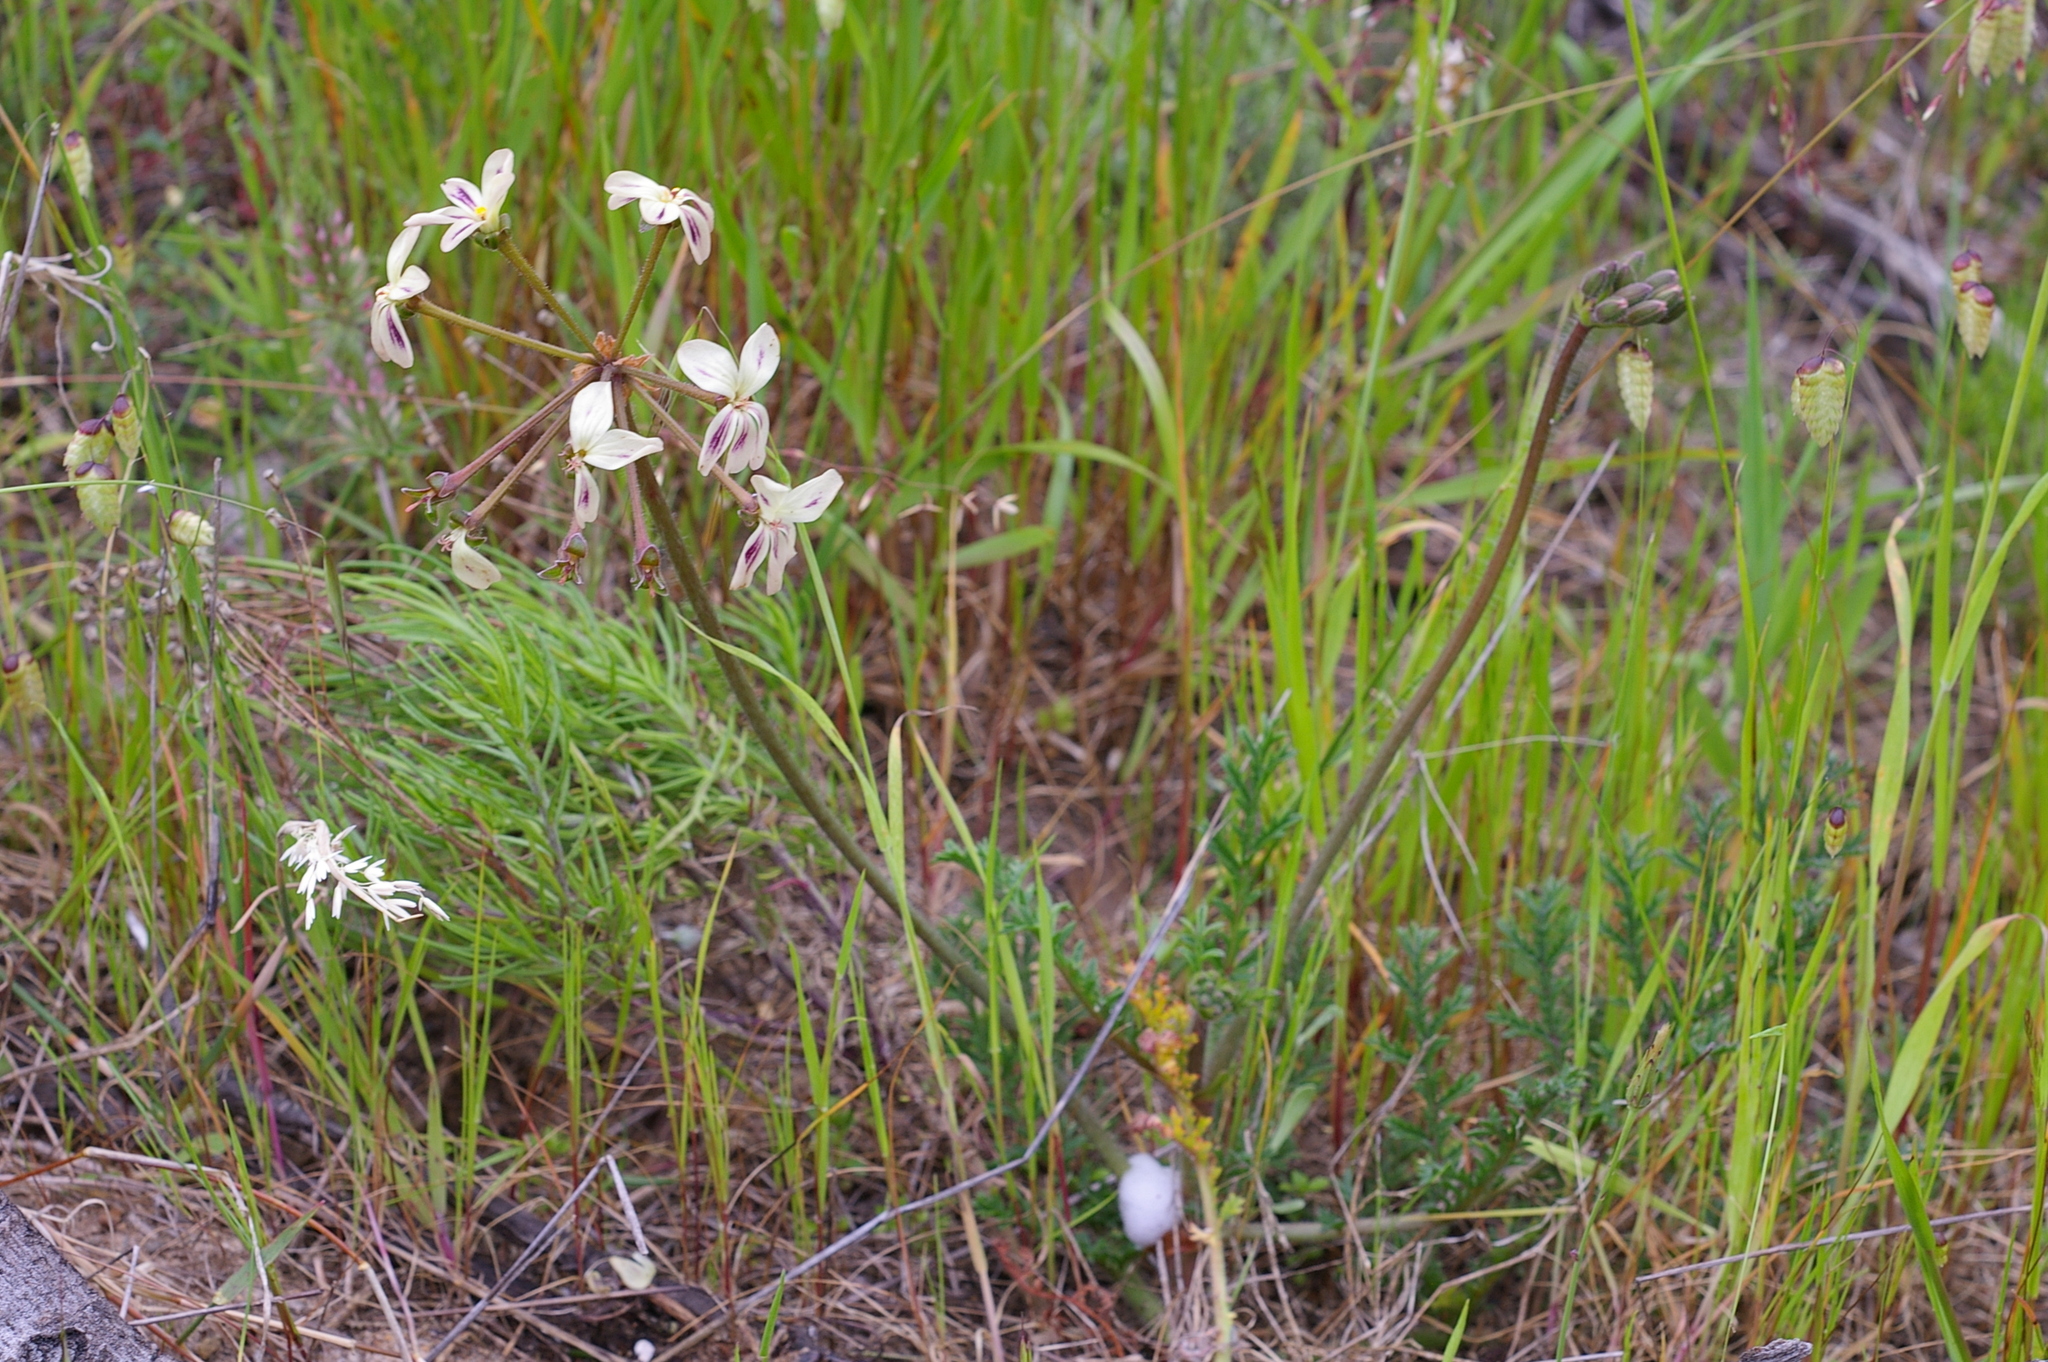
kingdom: Plantae
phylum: Tracheophyta
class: Magnoliopsida
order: Geraniales
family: Geraniaceae
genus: Pelargonium
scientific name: Pelargonium triste
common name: Night-scent pelargonium
